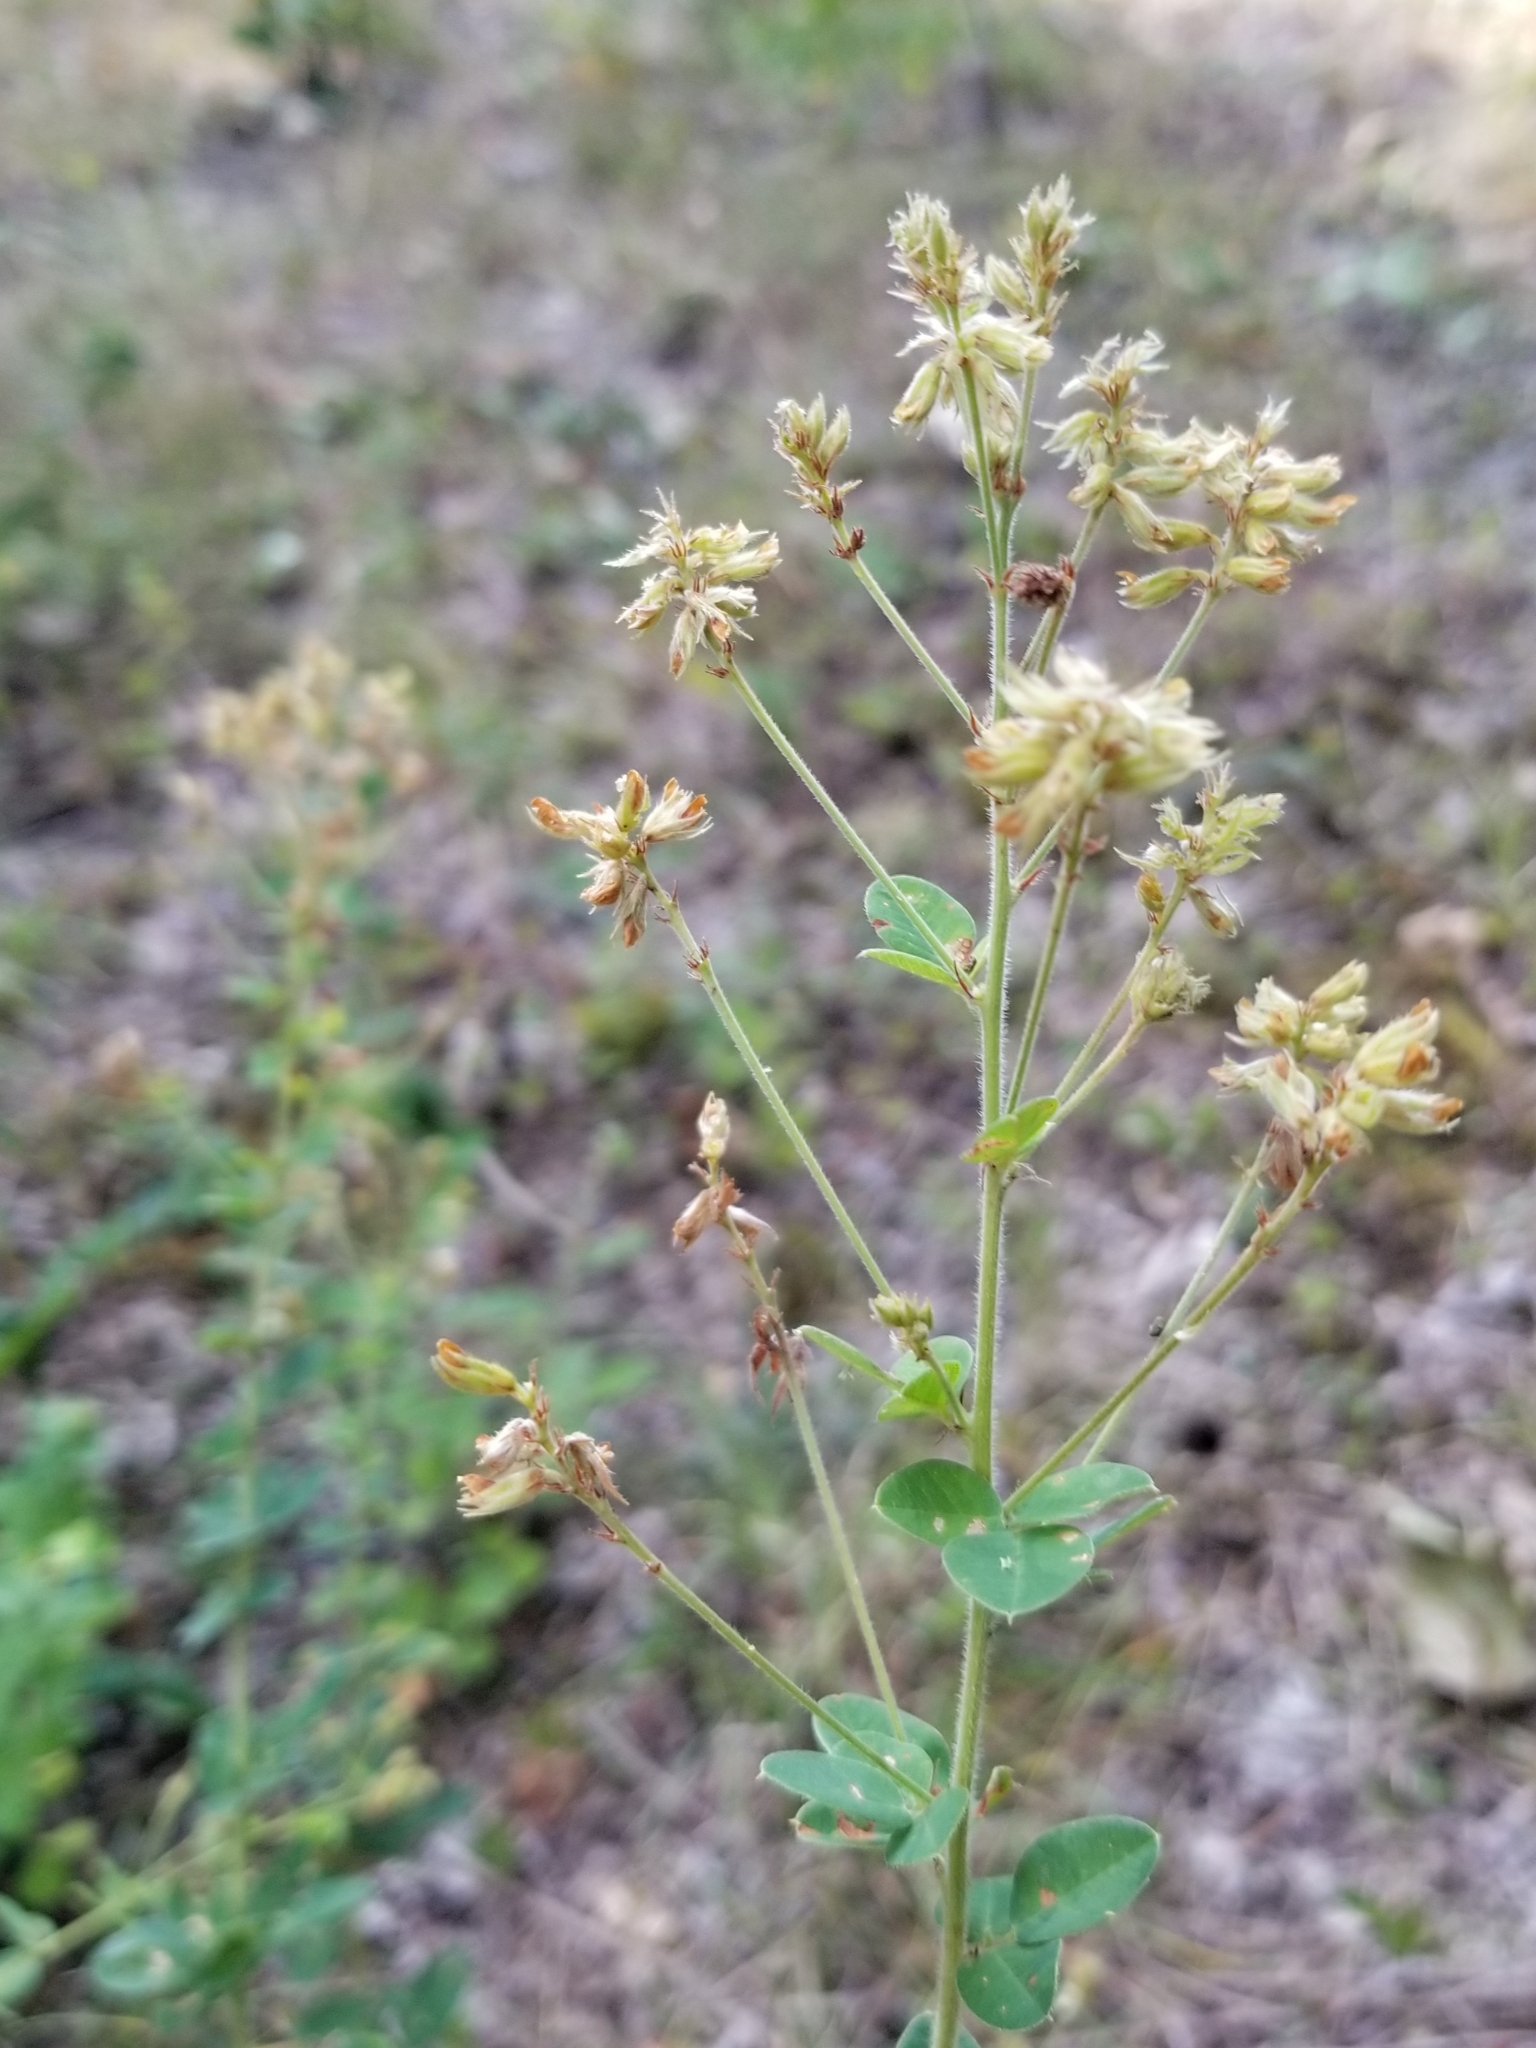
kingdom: Plantae
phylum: Tracheophyta
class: Magnoliopsida
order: Fabales
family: Fabaceae
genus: Lespedeza
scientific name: Lespedeza hirta
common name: Hairy lespedeza
